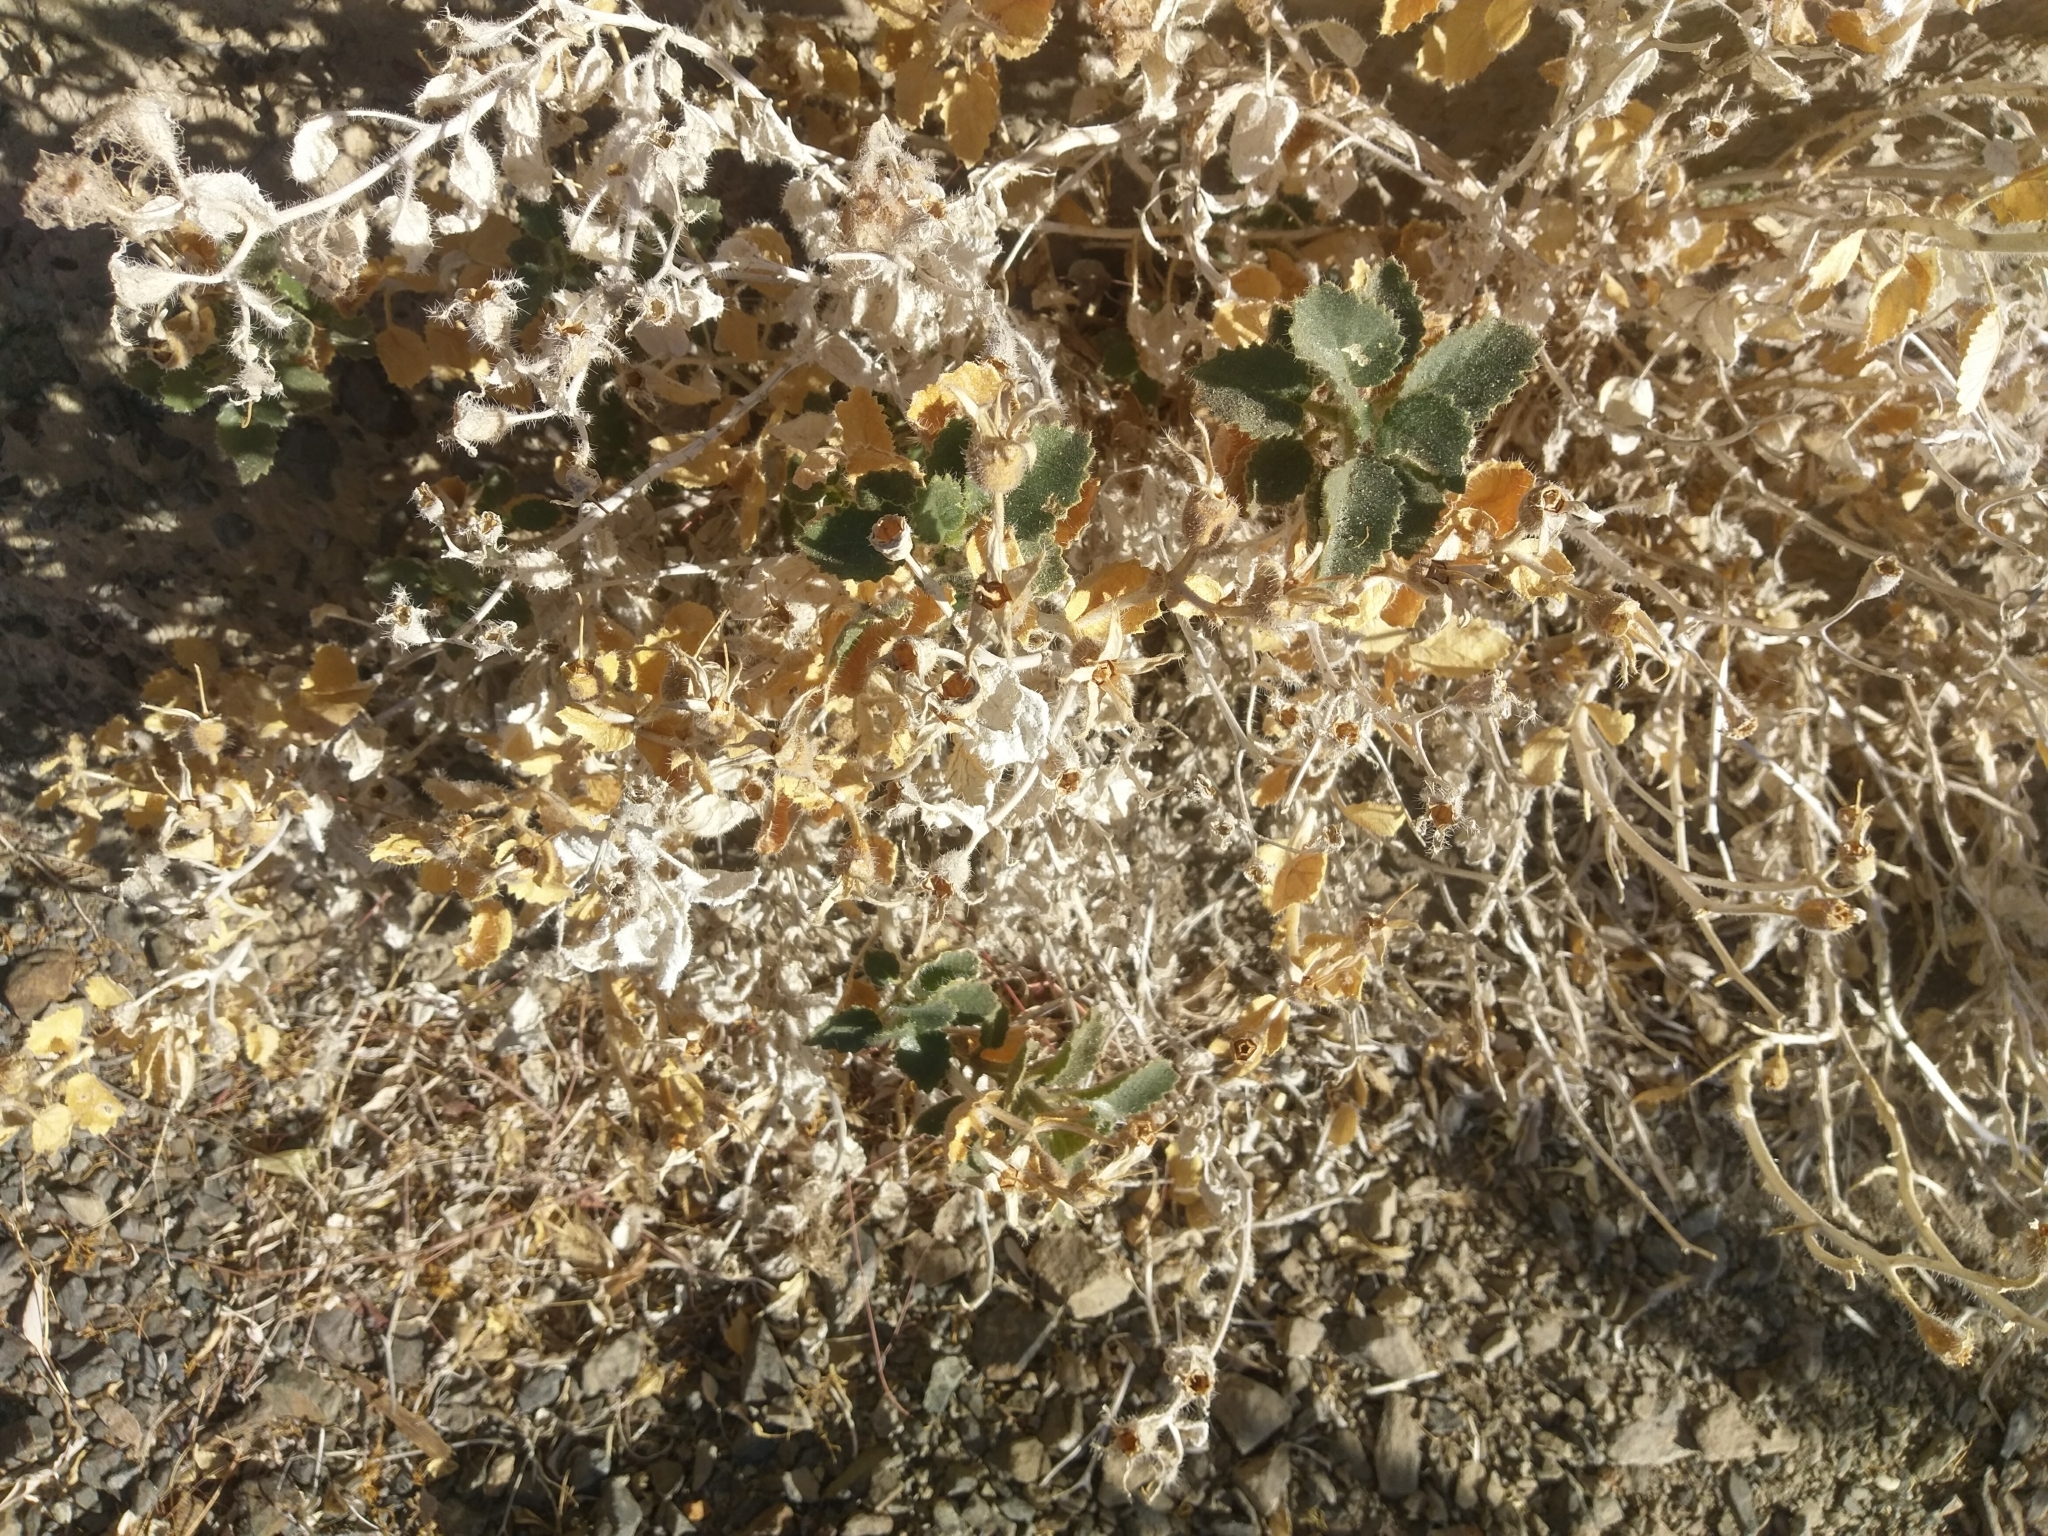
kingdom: Plantae
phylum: Tracheophyta
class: Magnoliopsida
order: Cornales
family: Loasaceae
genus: Eucnide
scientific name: Eucnide urens
